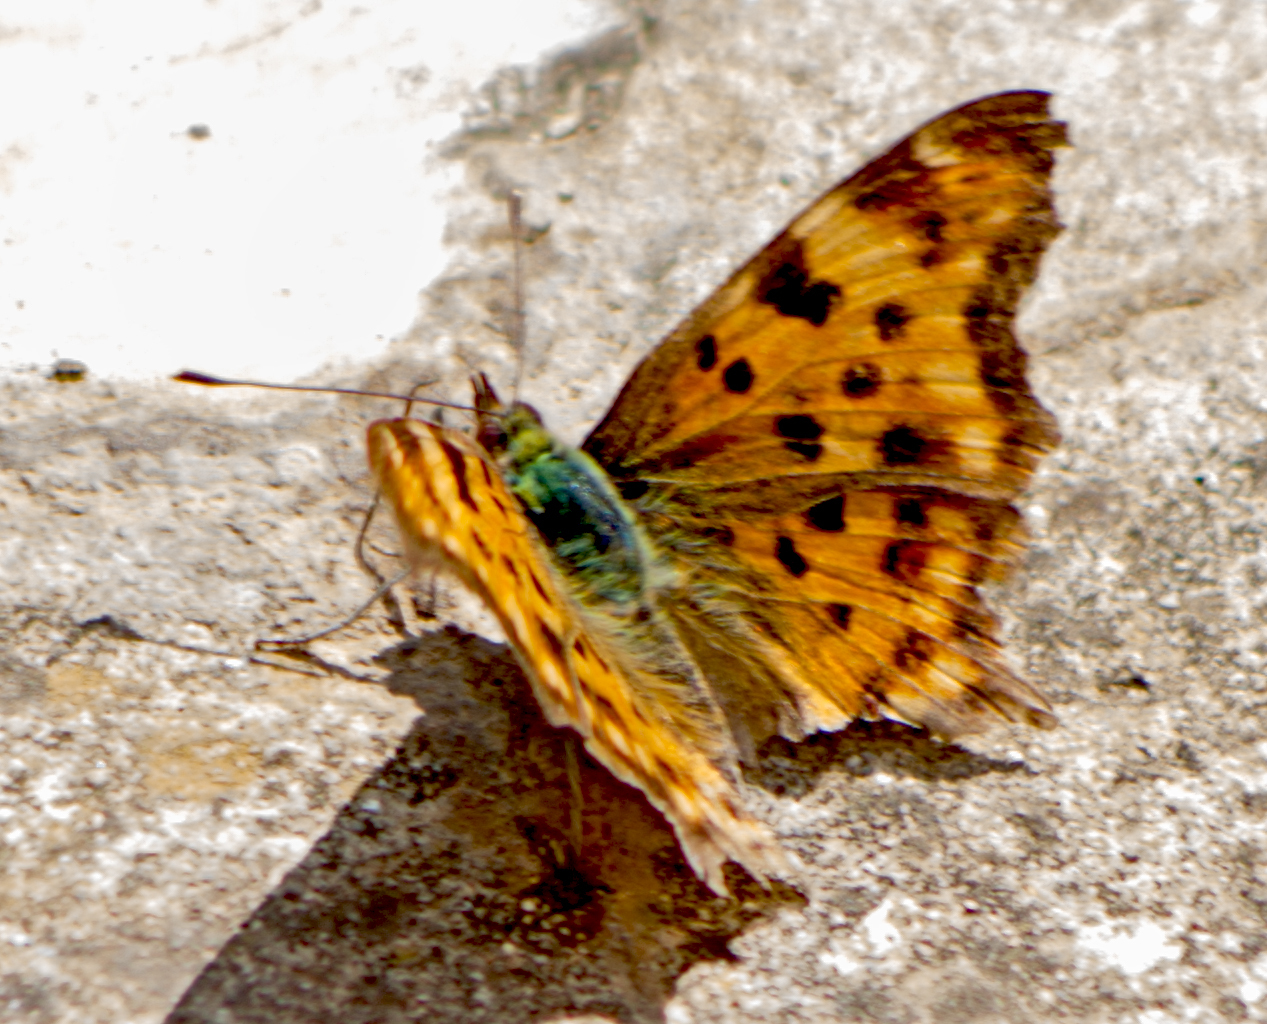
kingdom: Animalia
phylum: Arthropoda
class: Insecta
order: Lepidoptera
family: Nymphalidae
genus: Polygonia
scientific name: Polygonia c-album
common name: Comma
